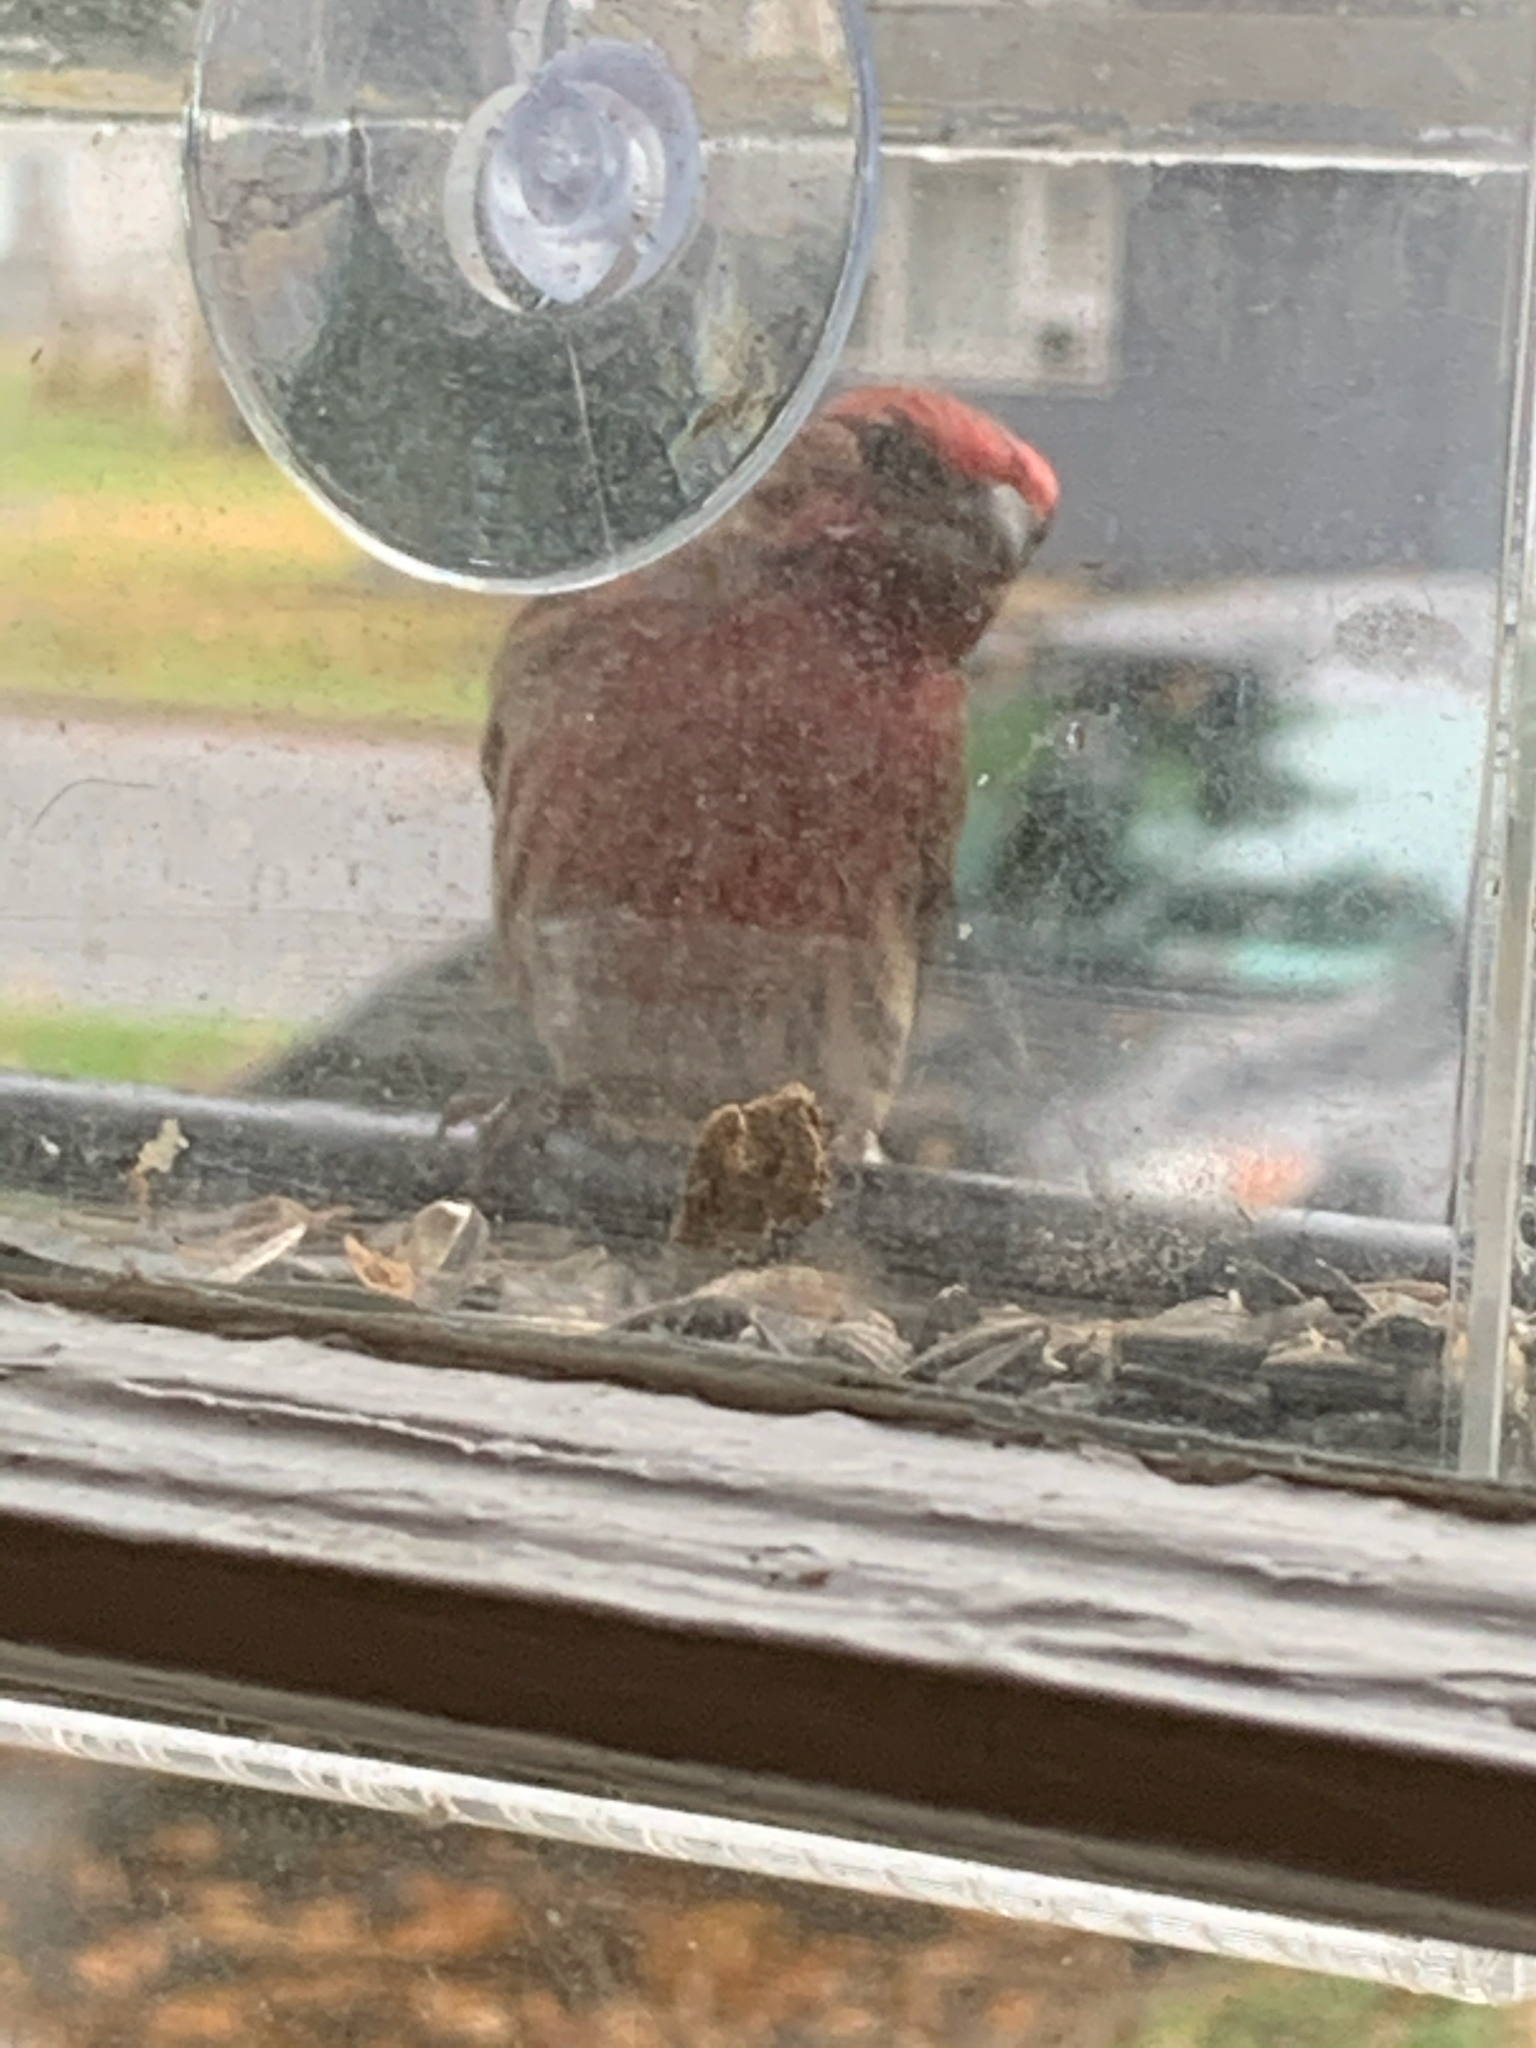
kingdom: Animalia
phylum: Chordata
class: Aves
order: Passeriformes
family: Fringillidae
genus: Haemorhous
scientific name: Haemorhous mexicanus
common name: House finch
